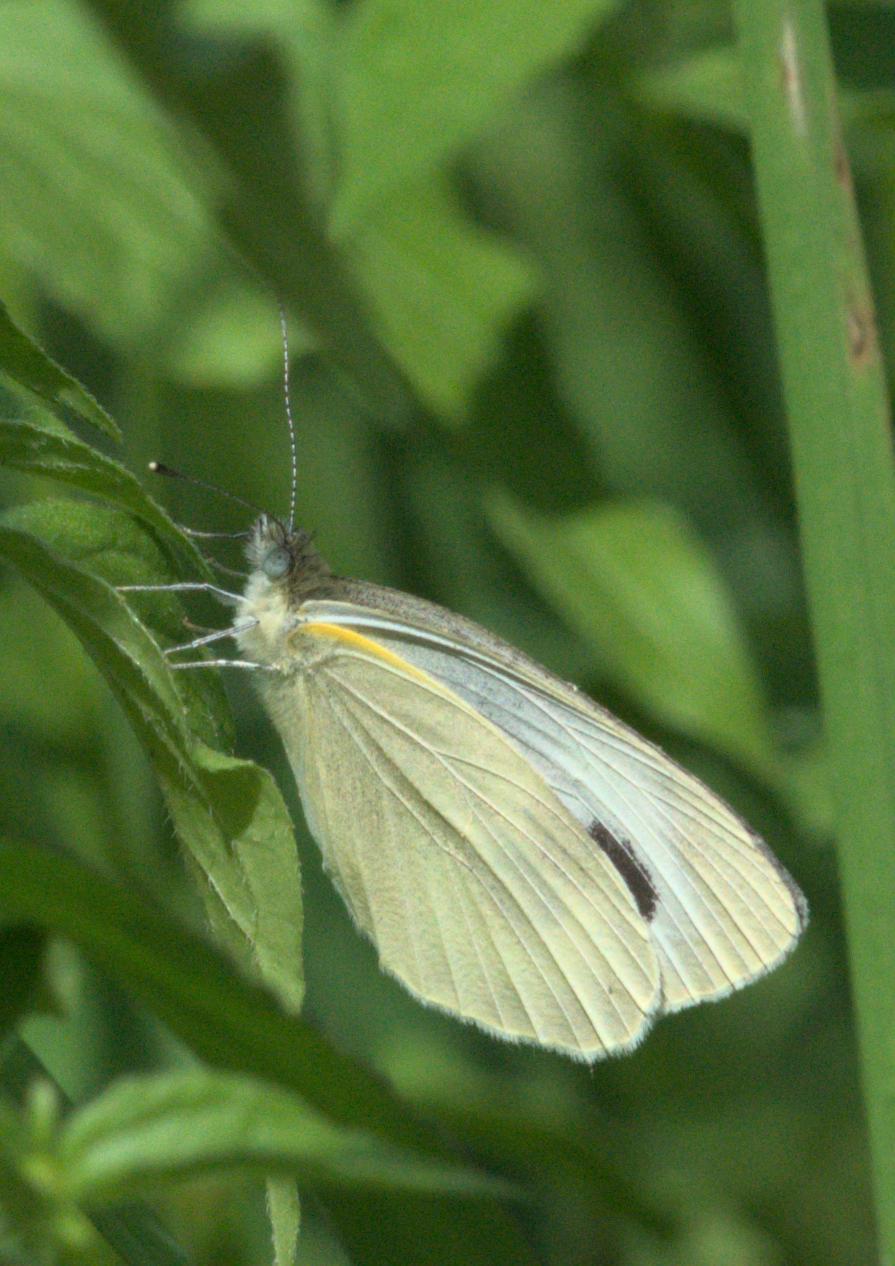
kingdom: Animalia
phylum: Arthropoda
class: Insecta
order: Lepidoptera
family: Pieridae
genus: Pieris
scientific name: Pieris canidia
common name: Indian cabbage white
